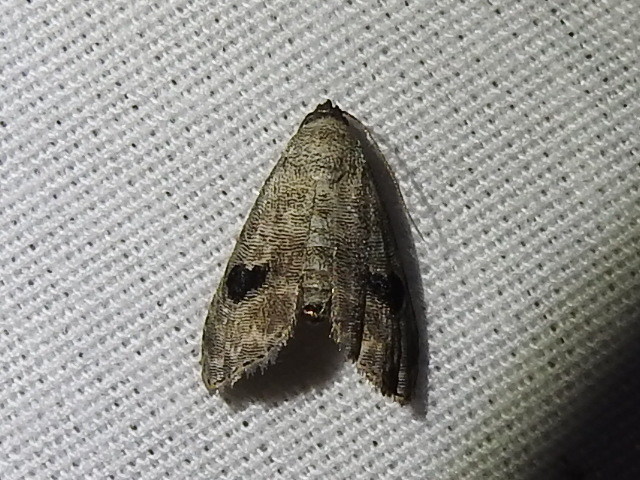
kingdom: Animalia
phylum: Arthropoda
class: Insecta
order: Lepidoptera
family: Noctuidae
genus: Abablemma
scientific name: Abablemma brimleyana
